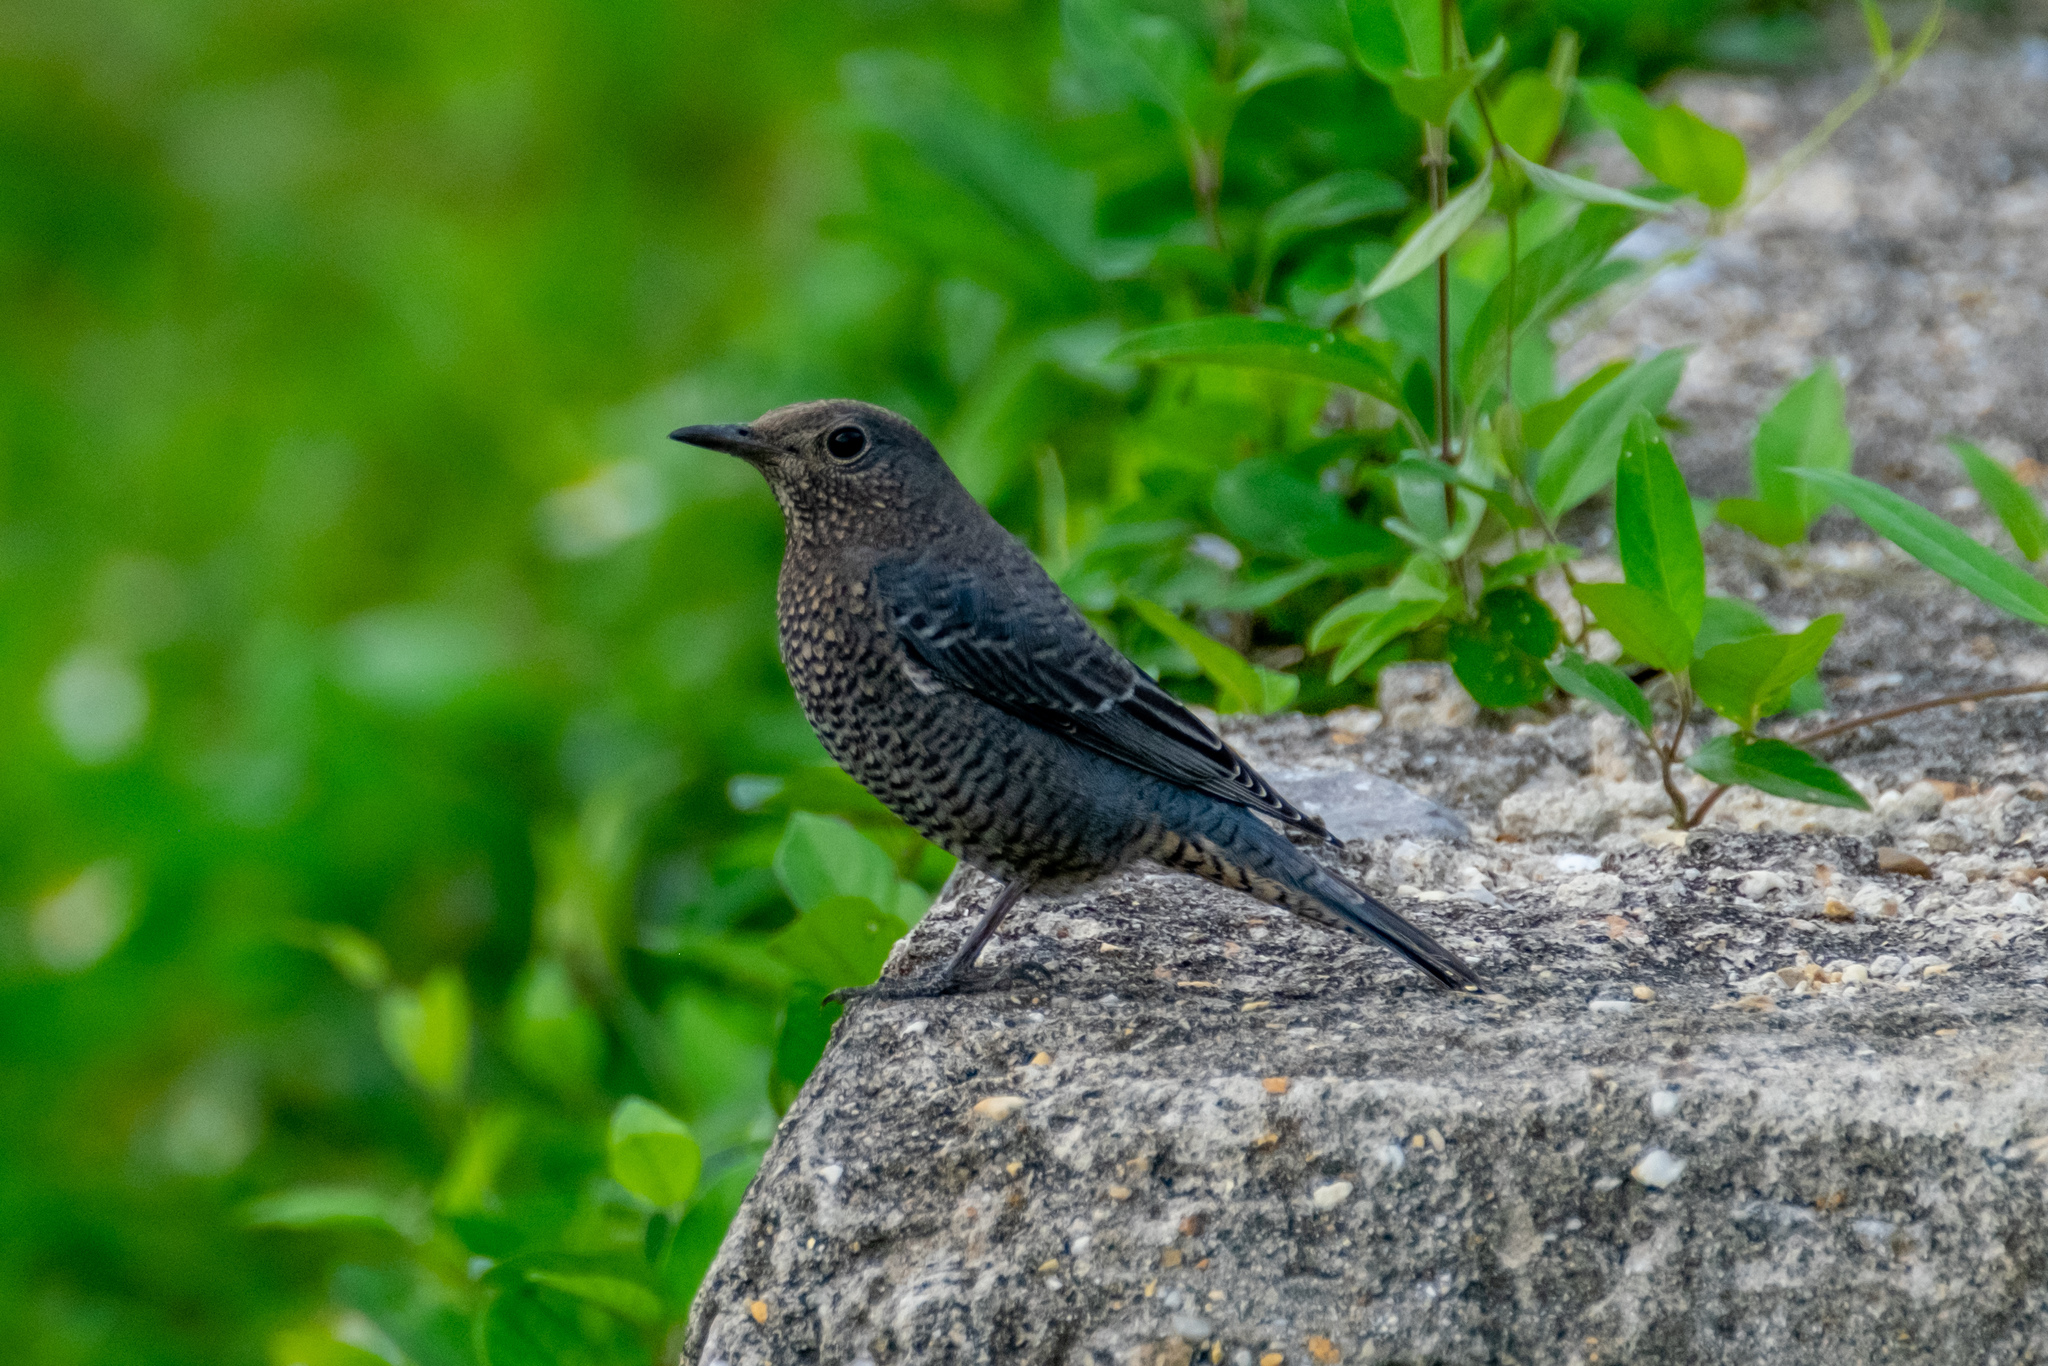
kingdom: Animalia
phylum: Chordata
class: Aves
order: Passeriformes
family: Muscicapidae
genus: Monticola
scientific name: Monticola solitarius
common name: Blue rock thrush
